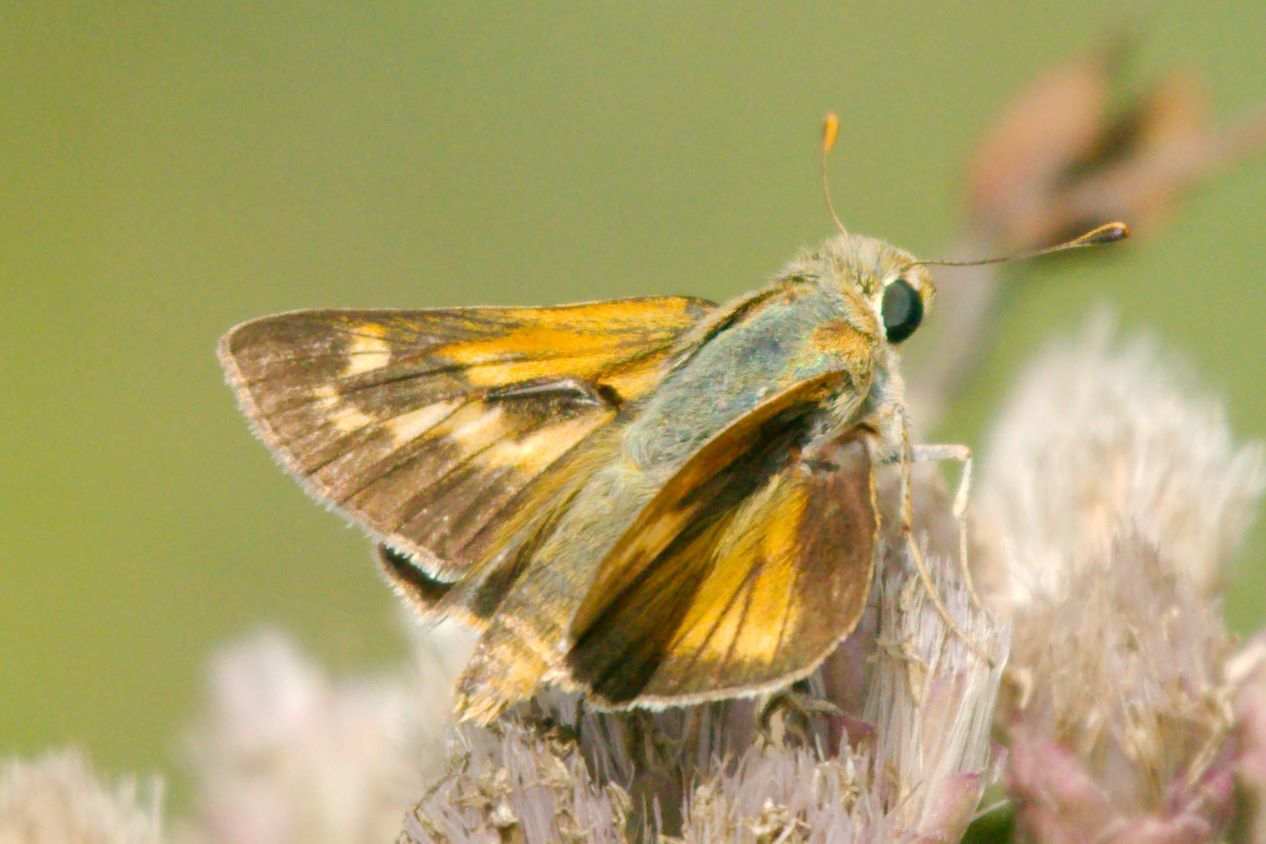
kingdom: Animalia
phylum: Arthropoda
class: Insecta
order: Lepidoptera
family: Hesperiidae
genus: Hesperia
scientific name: Hesperia meskei
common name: Meske's skipper
